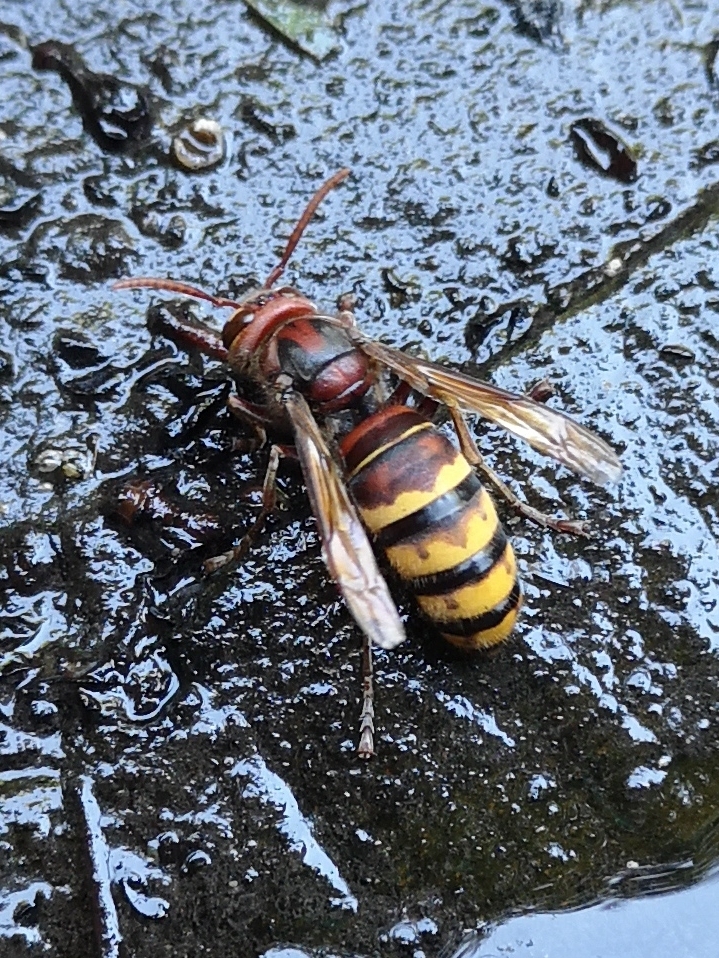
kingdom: Animalia
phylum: Arthropoda
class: Insecta
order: Hymenoptera
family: Vespidae
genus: Vespa
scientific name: Vespa crabro
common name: Hornet
